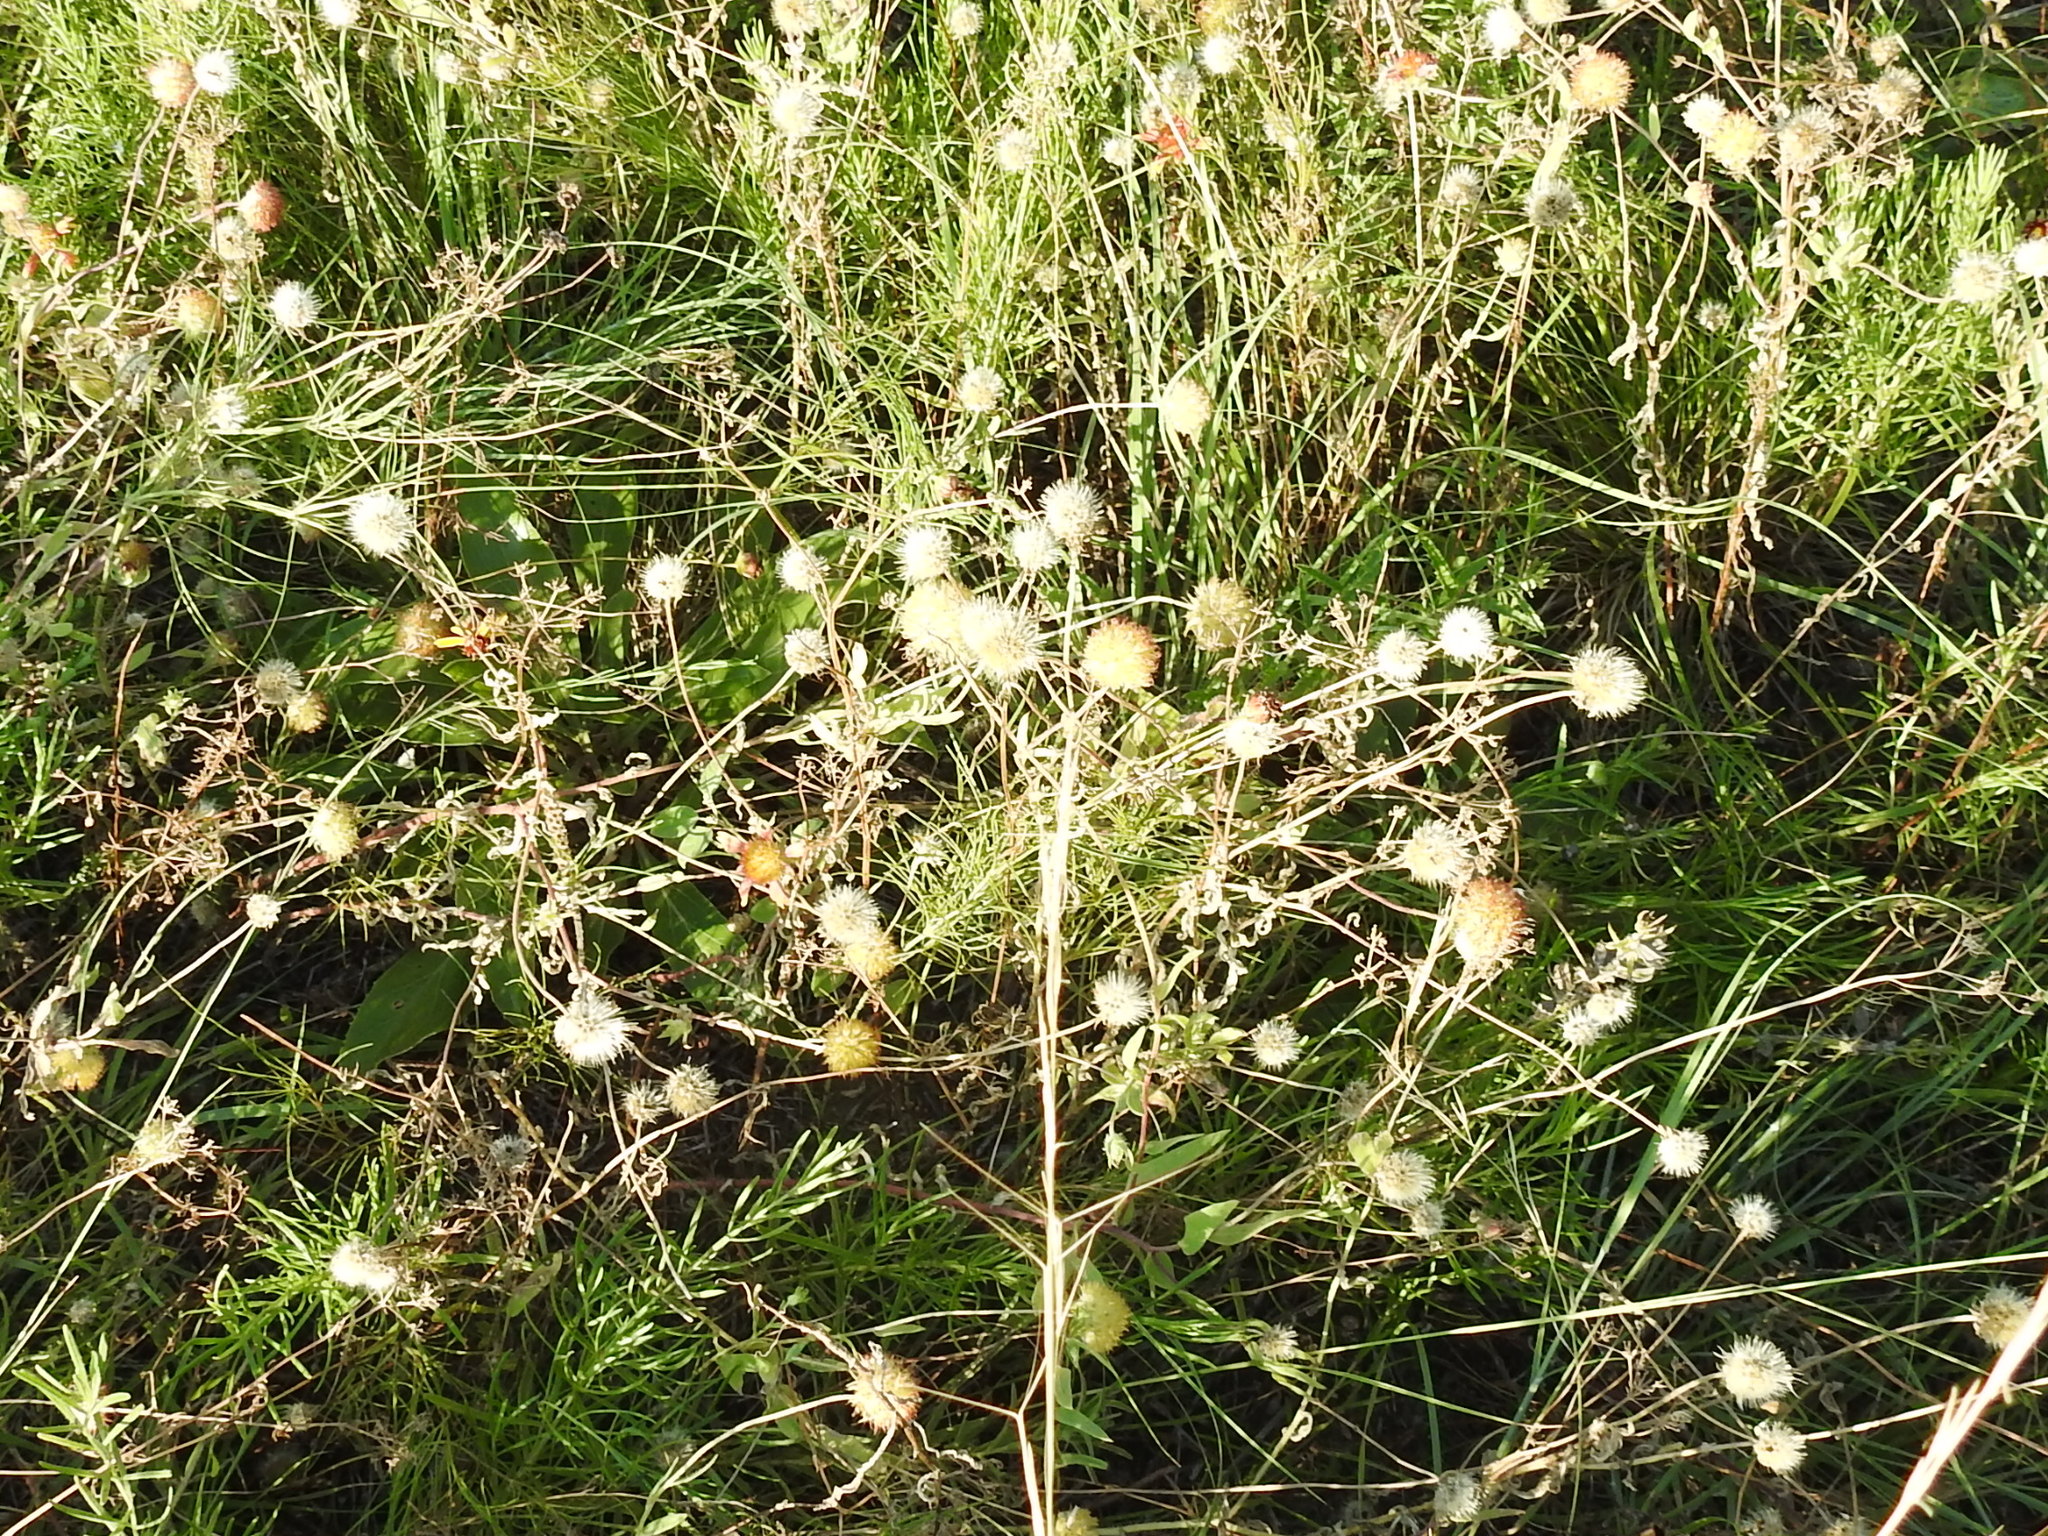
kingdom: Plantae
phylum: Tracheophyta
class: Magnoliopsida
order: Asterales
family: Asteraceae
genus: Gaillardia
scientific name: Gaillardia pulchella
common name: Firewheel
